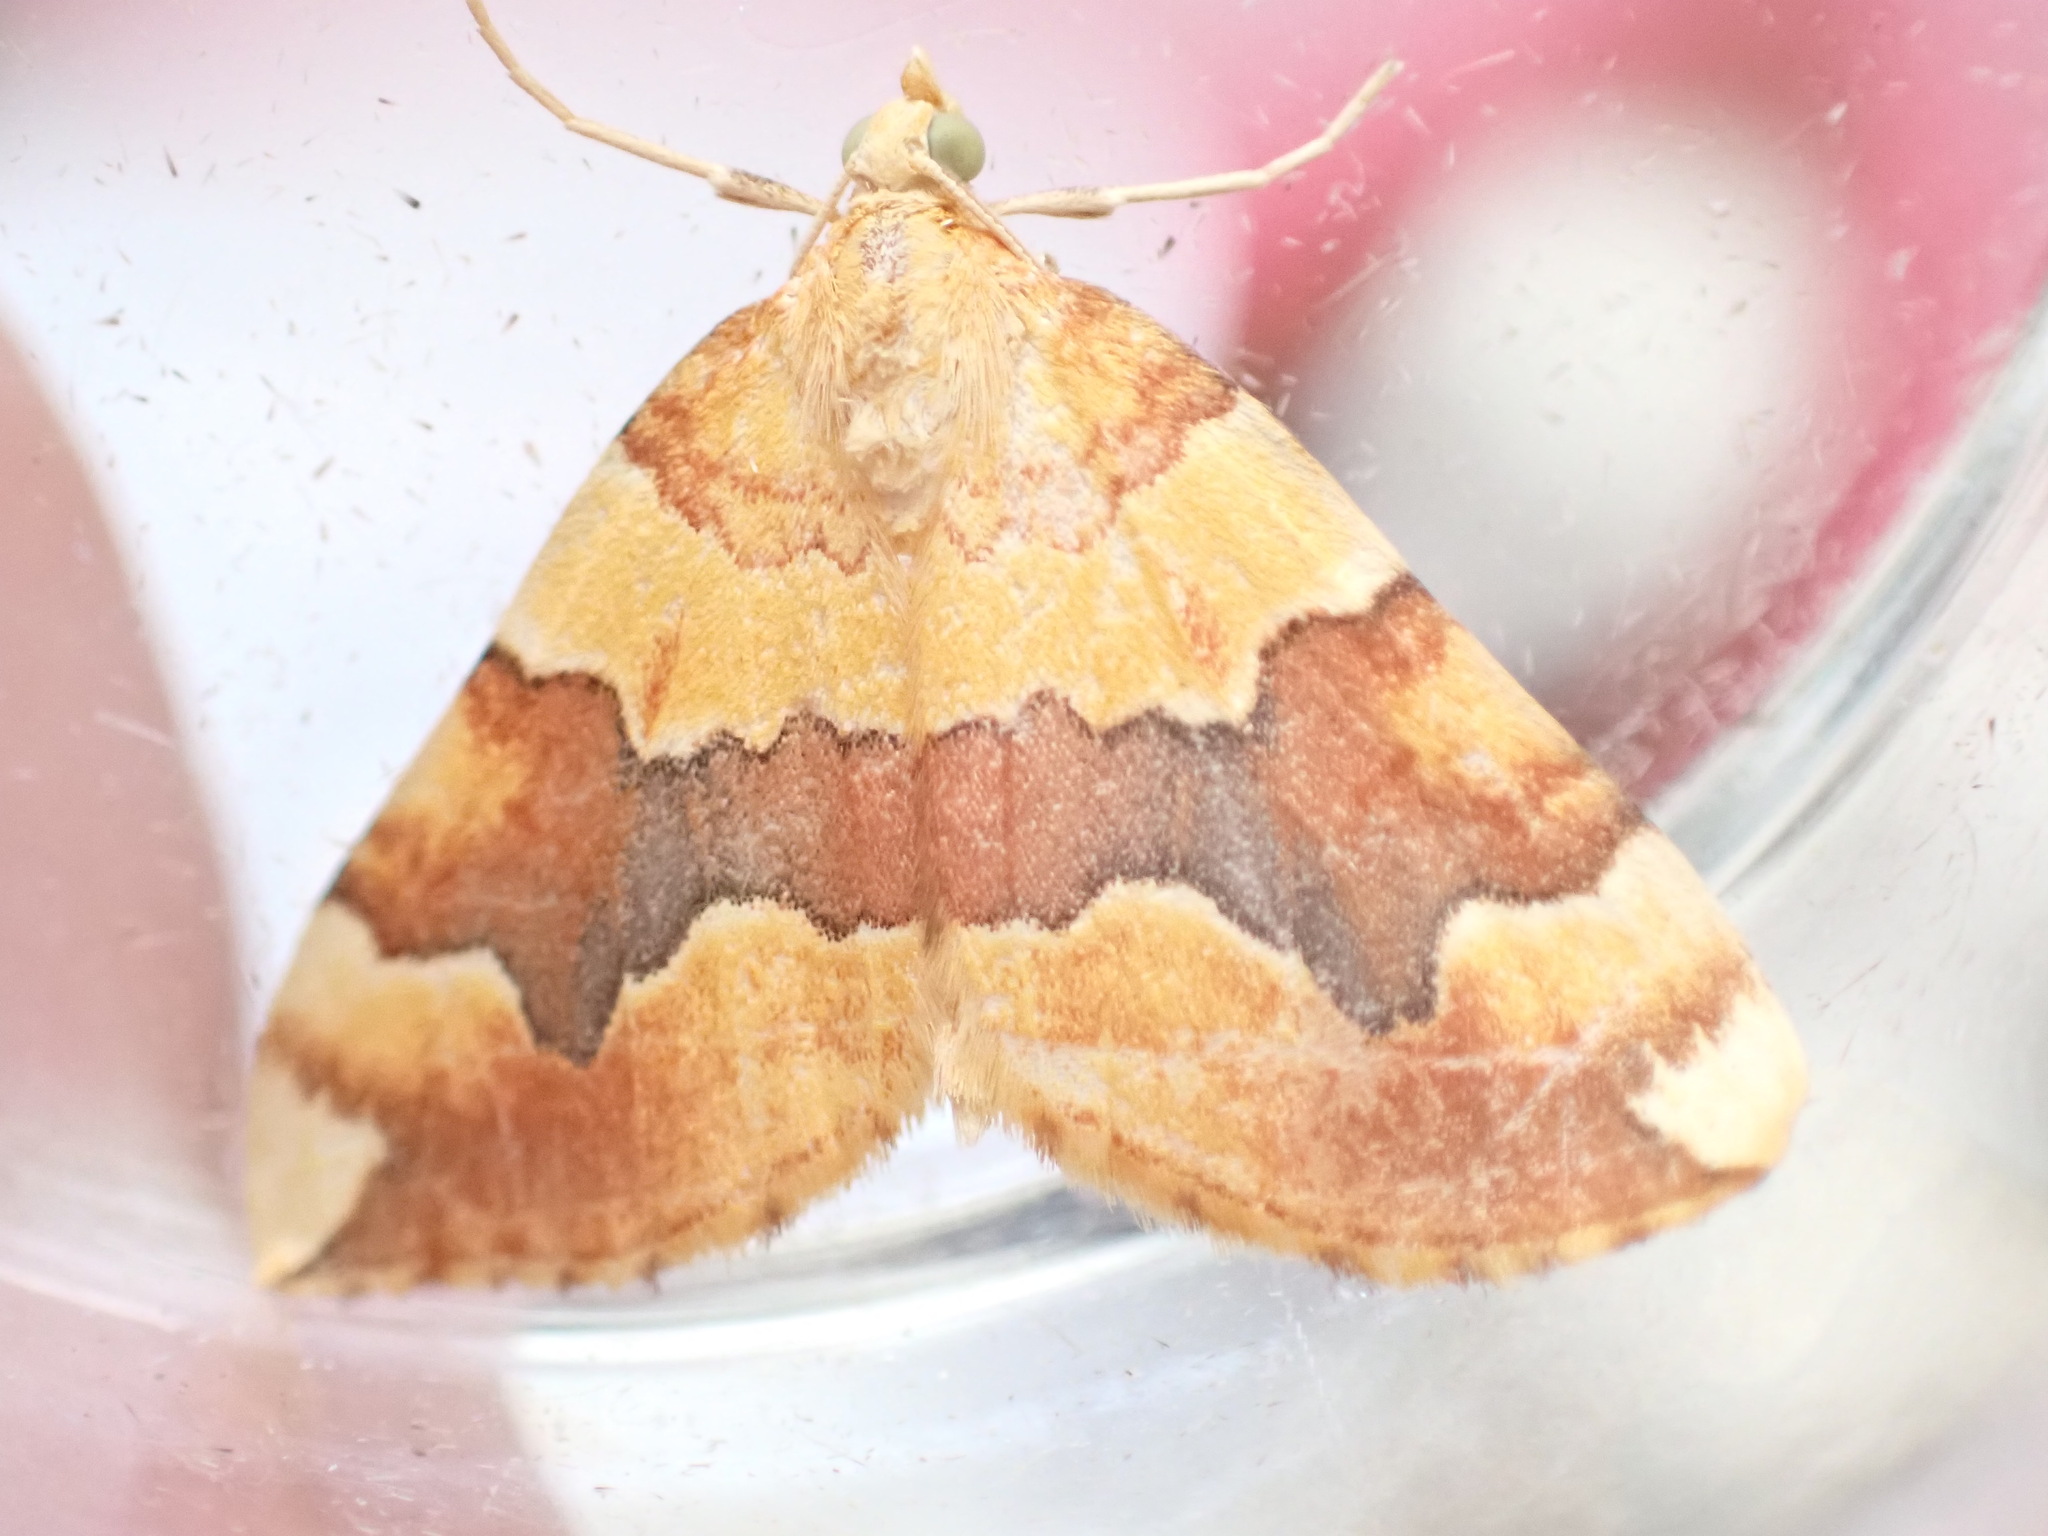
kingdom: Animalia
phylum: Arthropoda
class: Insecta
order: Lepidoptera
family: Geometridae
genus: Cidaria
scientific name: Cidaria fulvata
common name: Barred yellow
